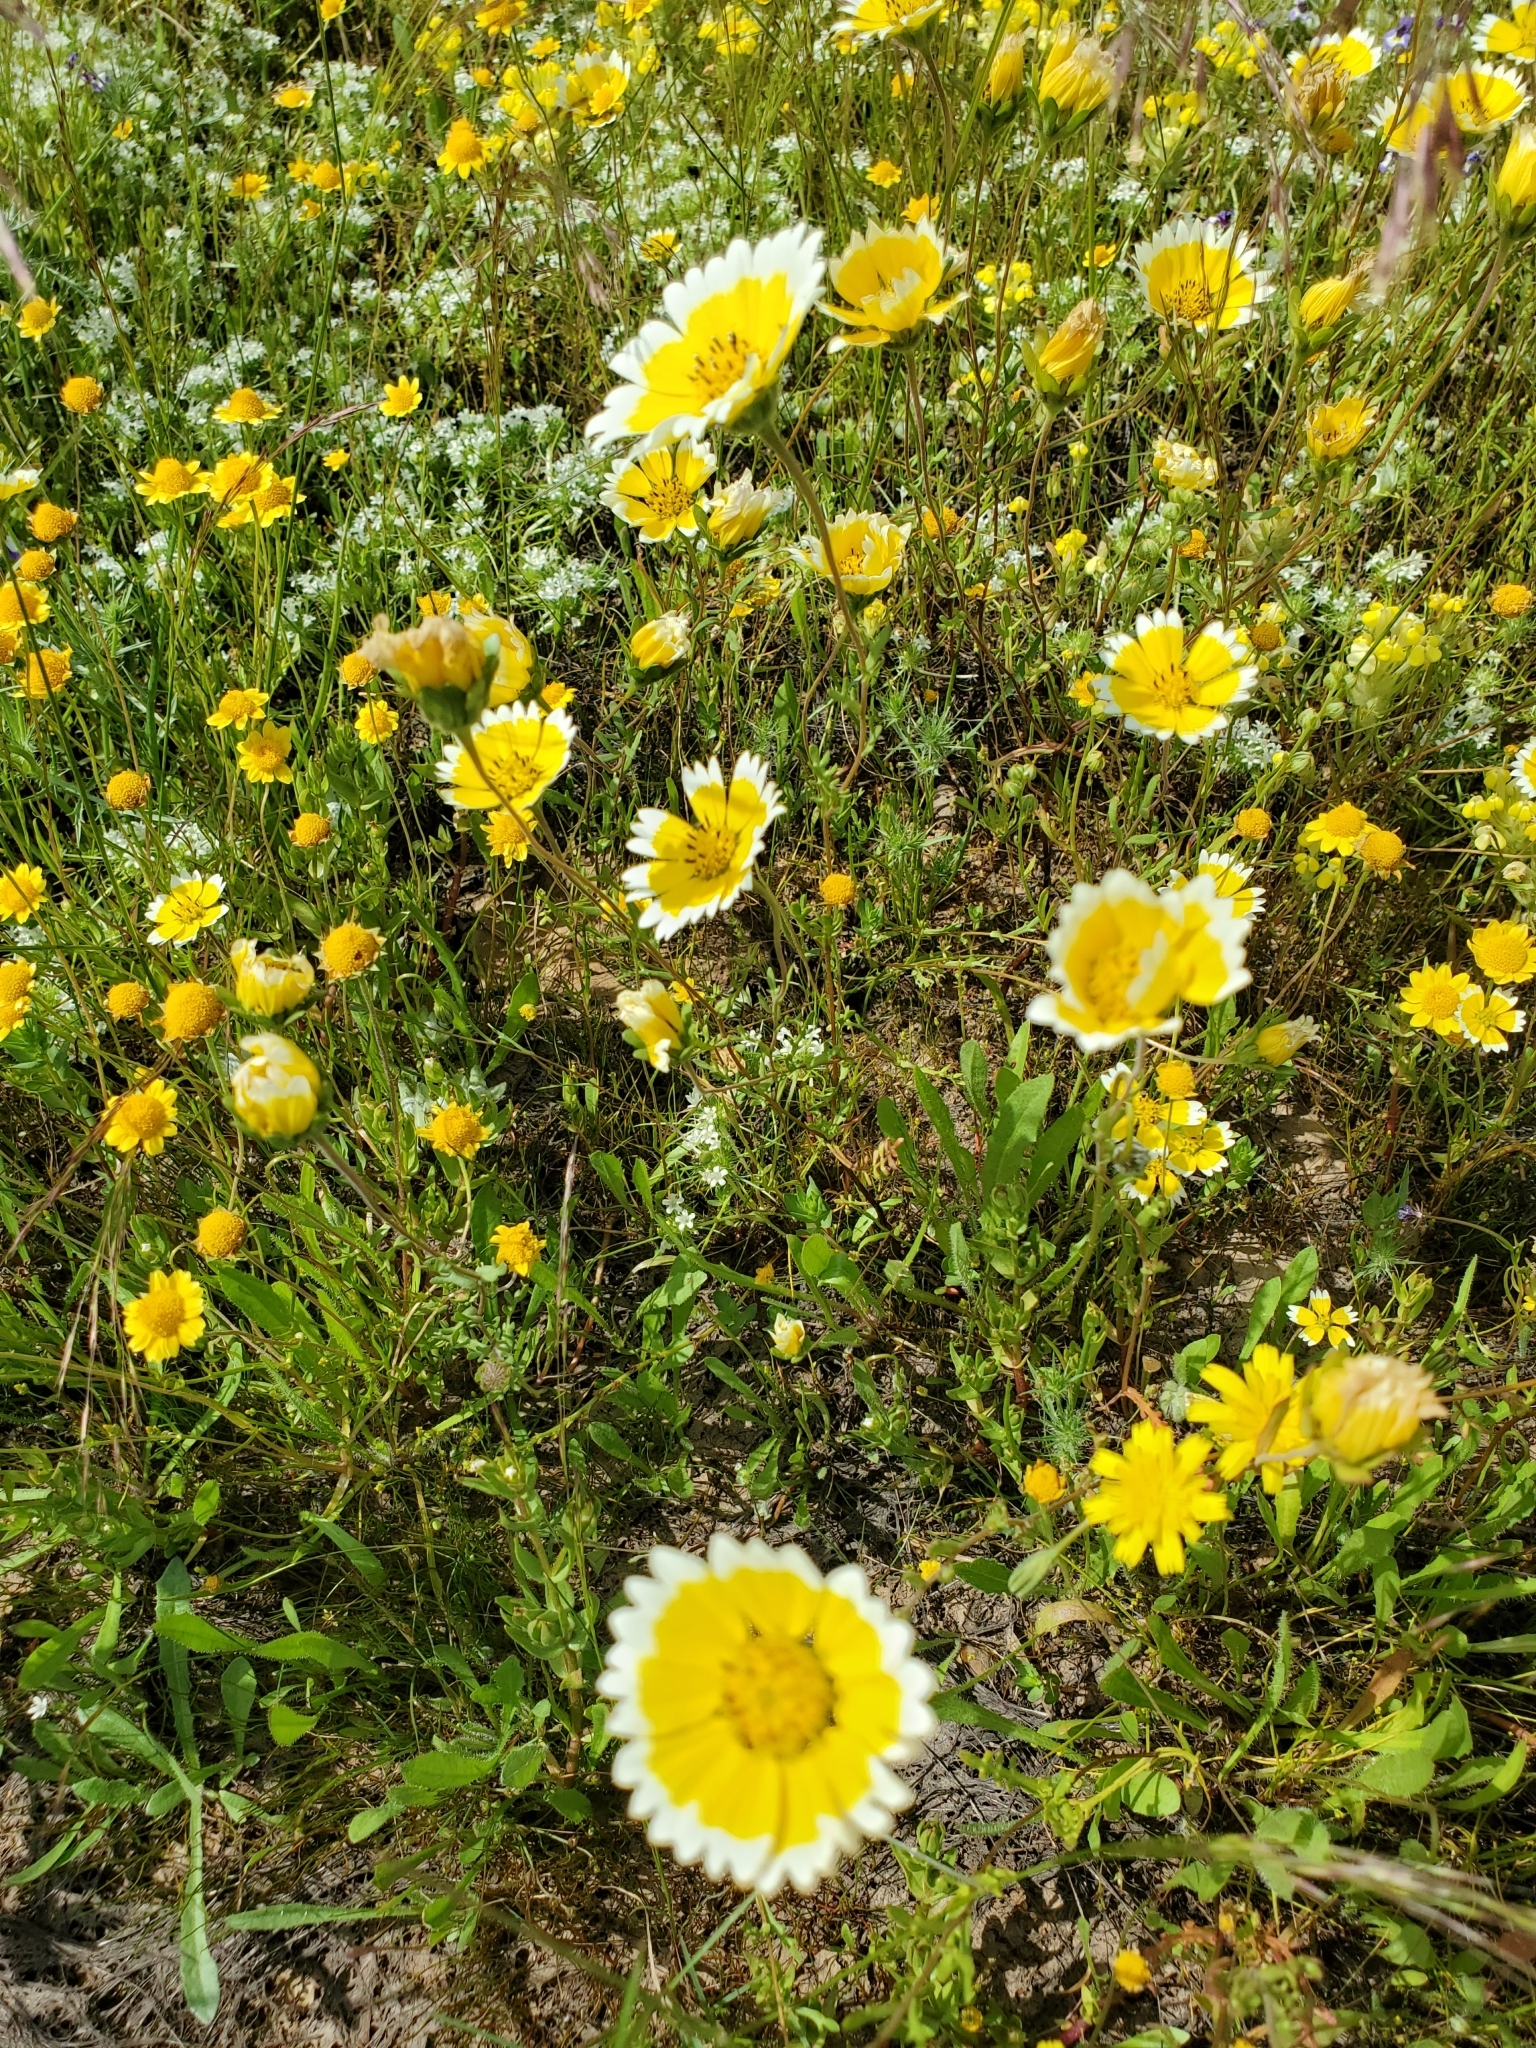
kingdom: Plantae
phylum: Tracheophyta
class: Magnoliopsida
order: Asterales
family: Asteraceae
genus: Layia
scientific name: Layia fremontii
